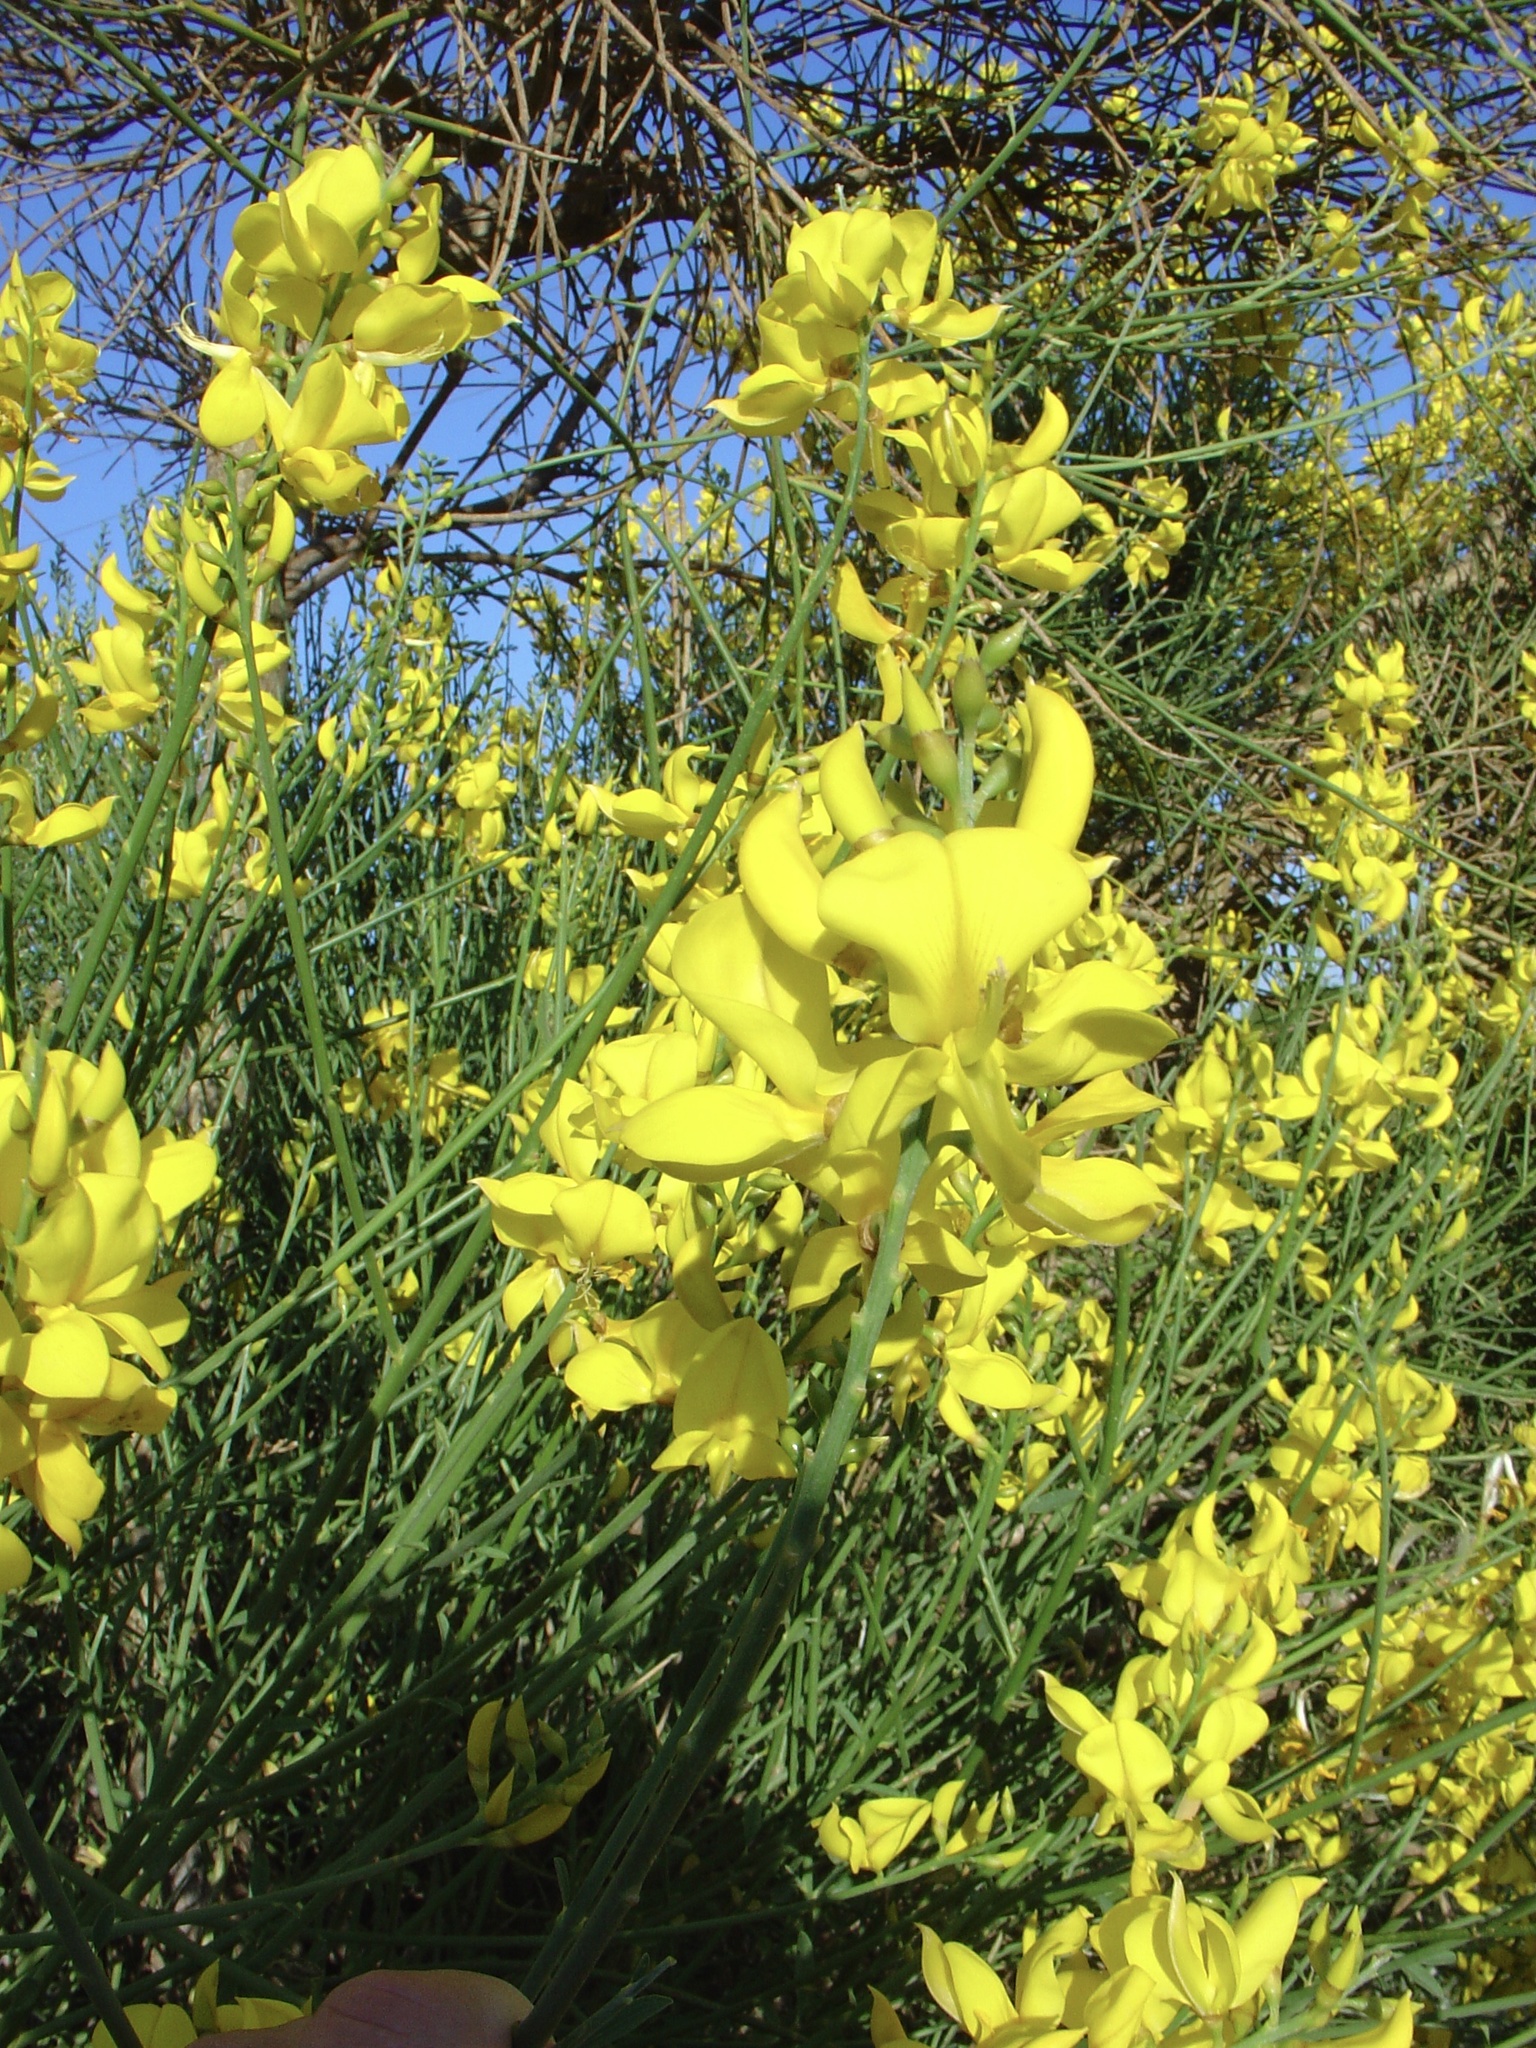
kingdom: Plantae
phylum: Tracheophyta
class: Magnoliopsida
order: Fabales
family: Fabaceae
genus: Spartium
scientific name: Spartium junceum
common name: Spanish broom
